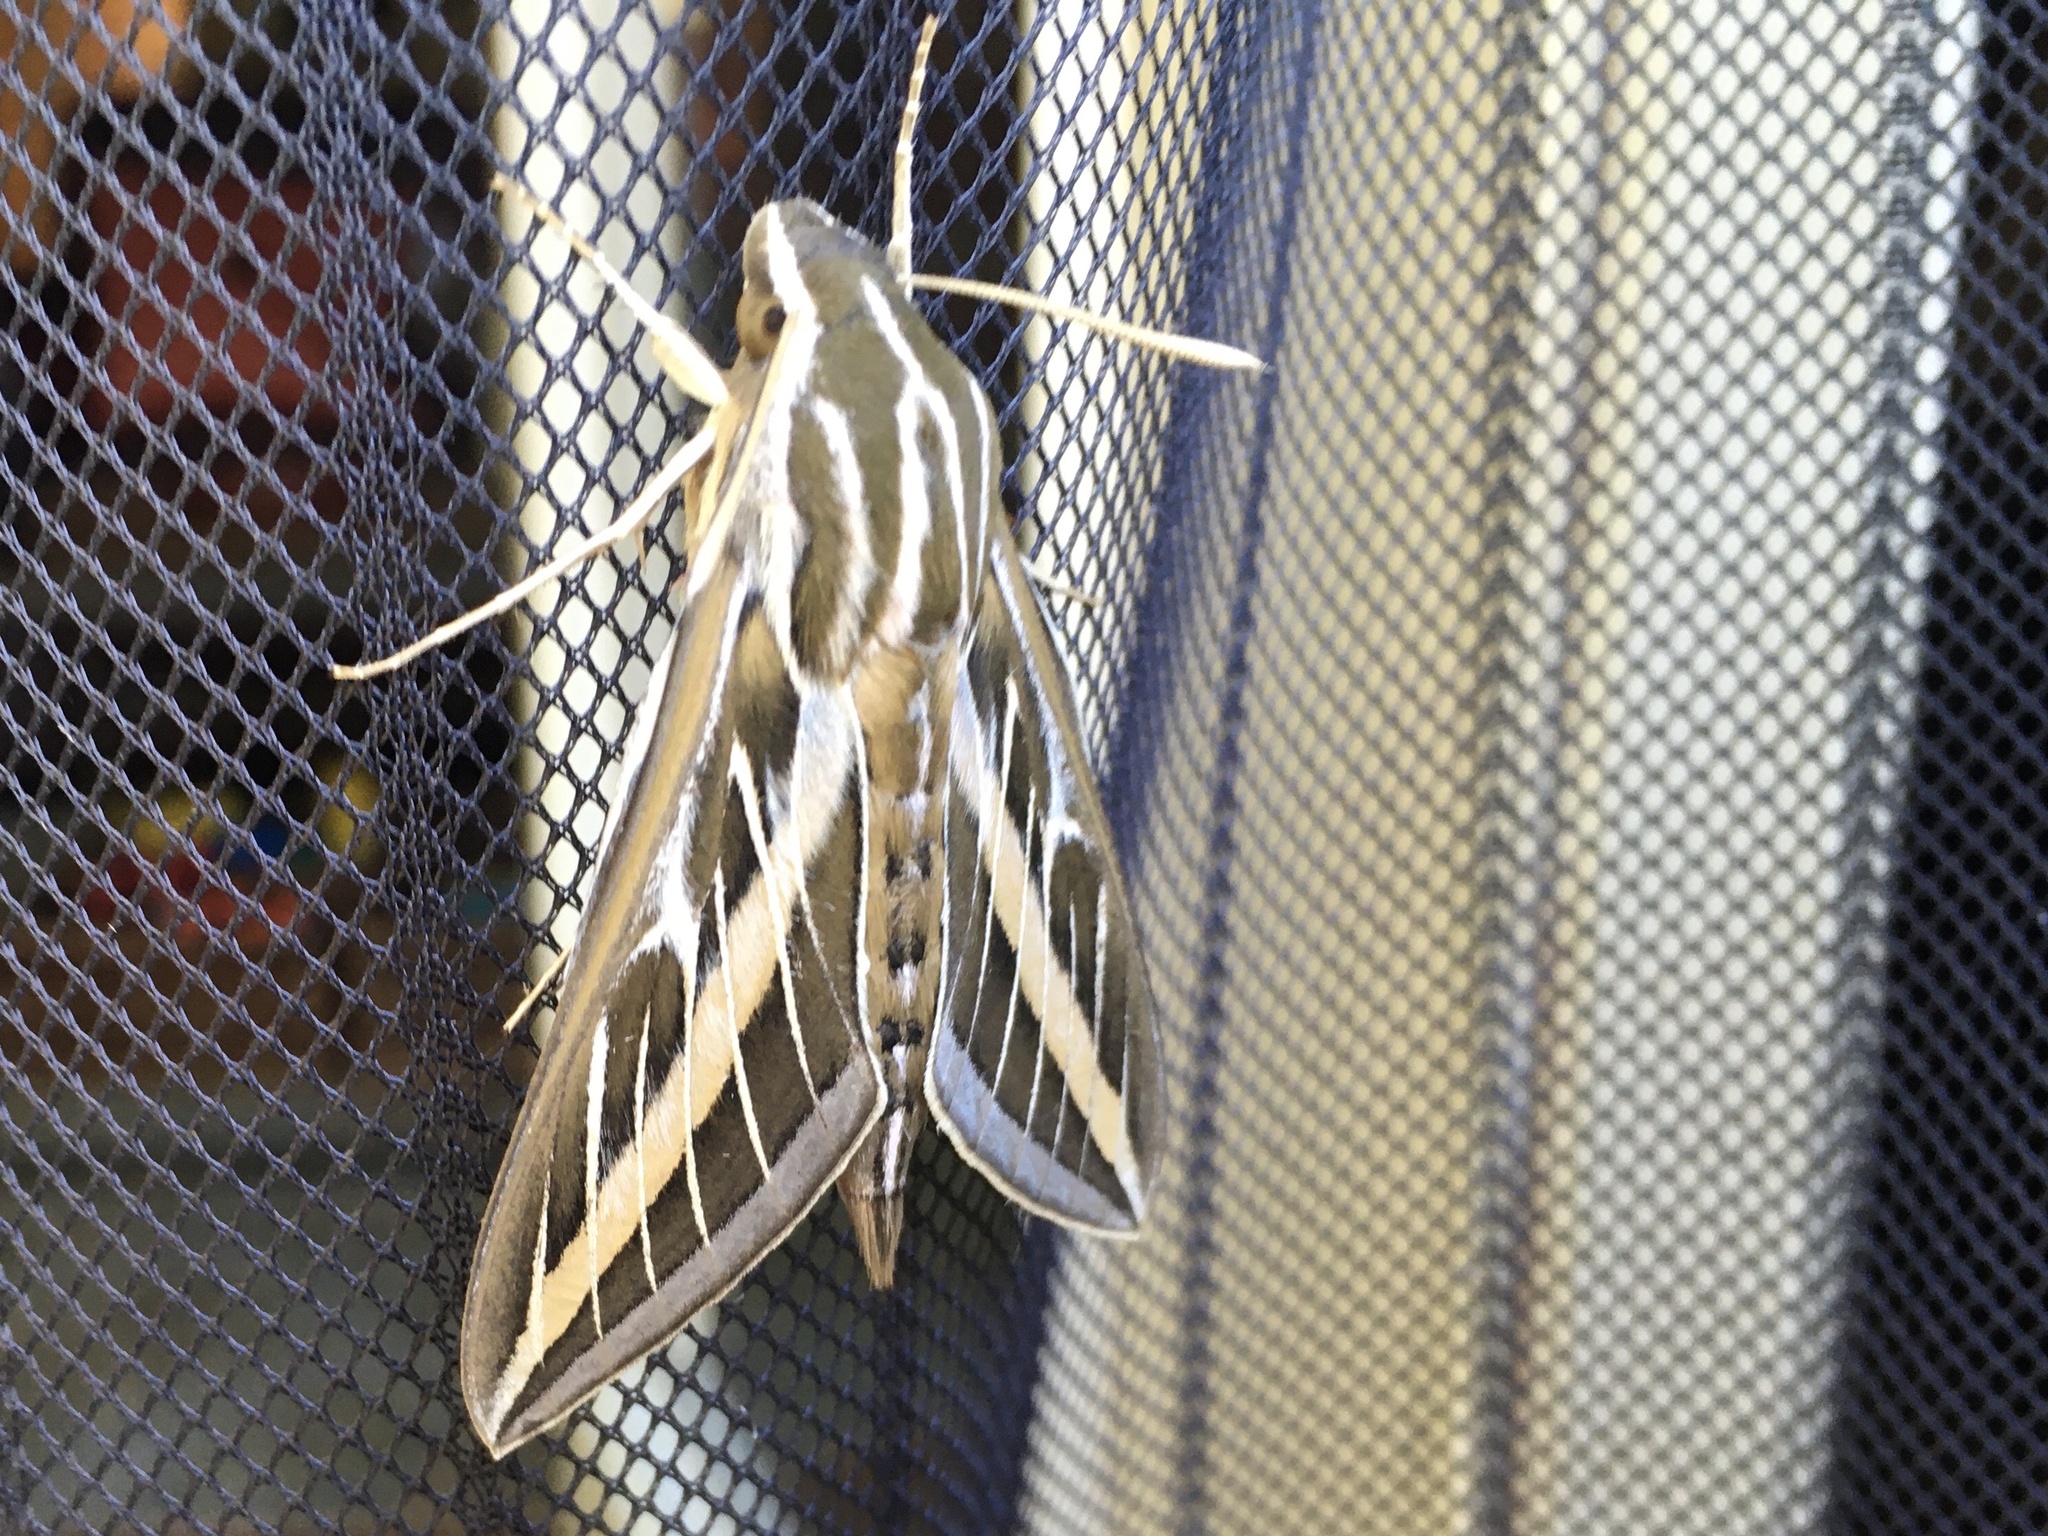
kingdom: Animalia
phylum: Arthropoda
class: Insecta
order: Lepidoptera
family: Sphingidae
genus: Hyles
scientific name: Hyles lineata
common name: White-lined sphinx
